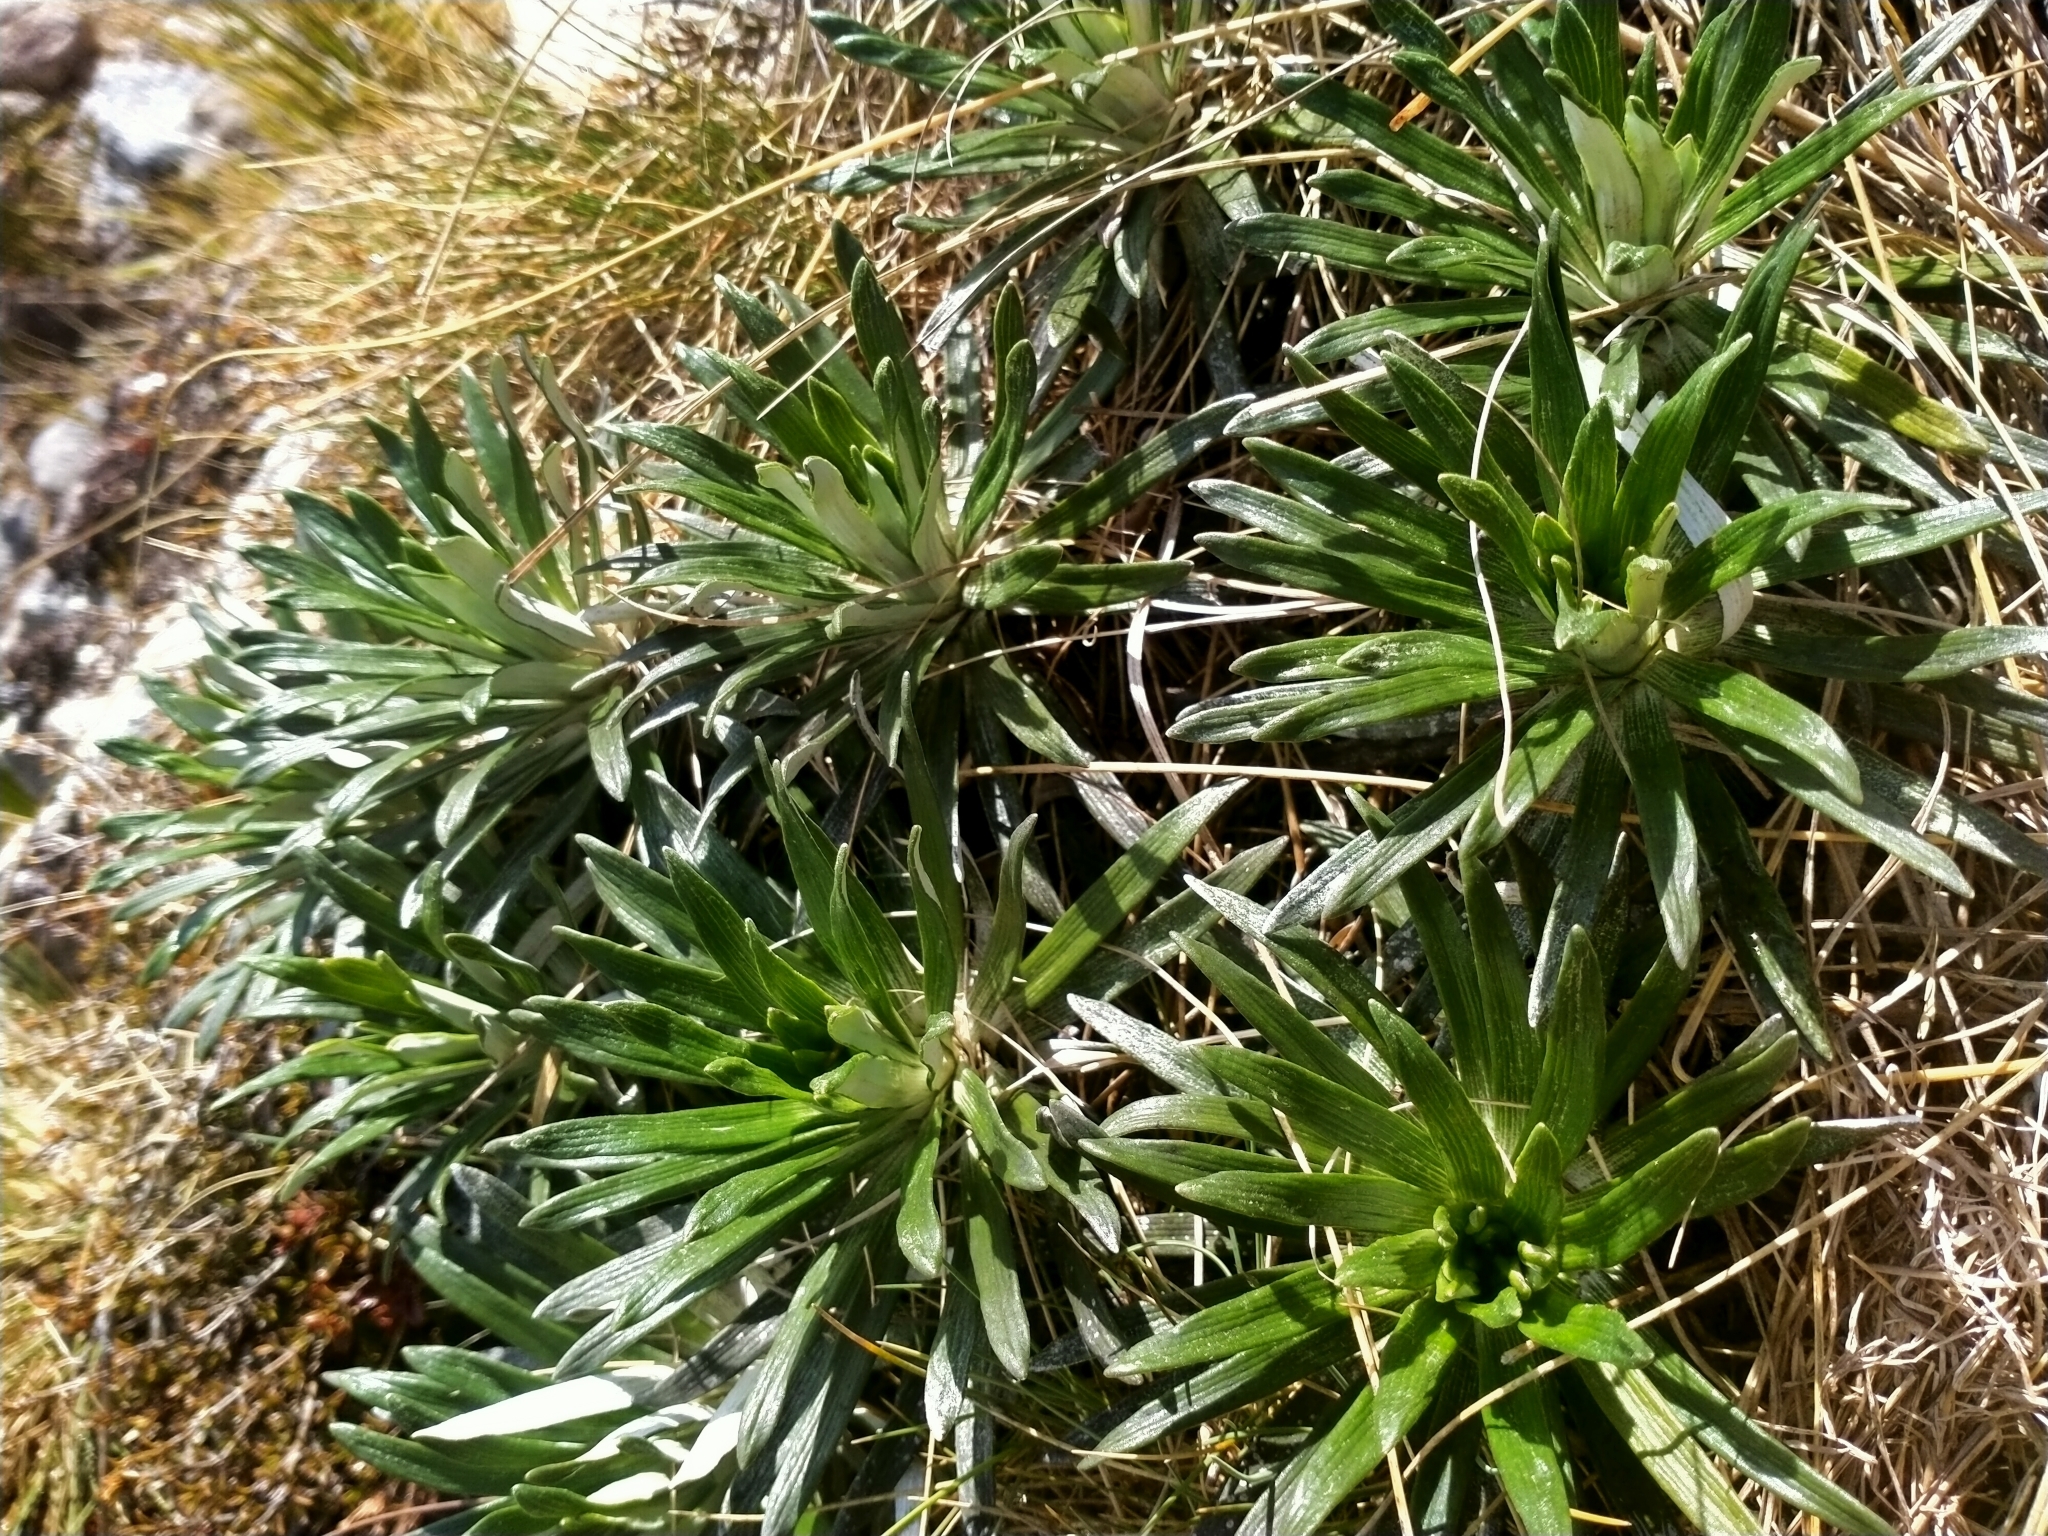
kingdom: Plantae
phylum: Tracheophyta
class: Magnoliopsida
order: Asterales
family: Asteraceae
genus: Celmisia
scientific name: Celmisia viscosa
